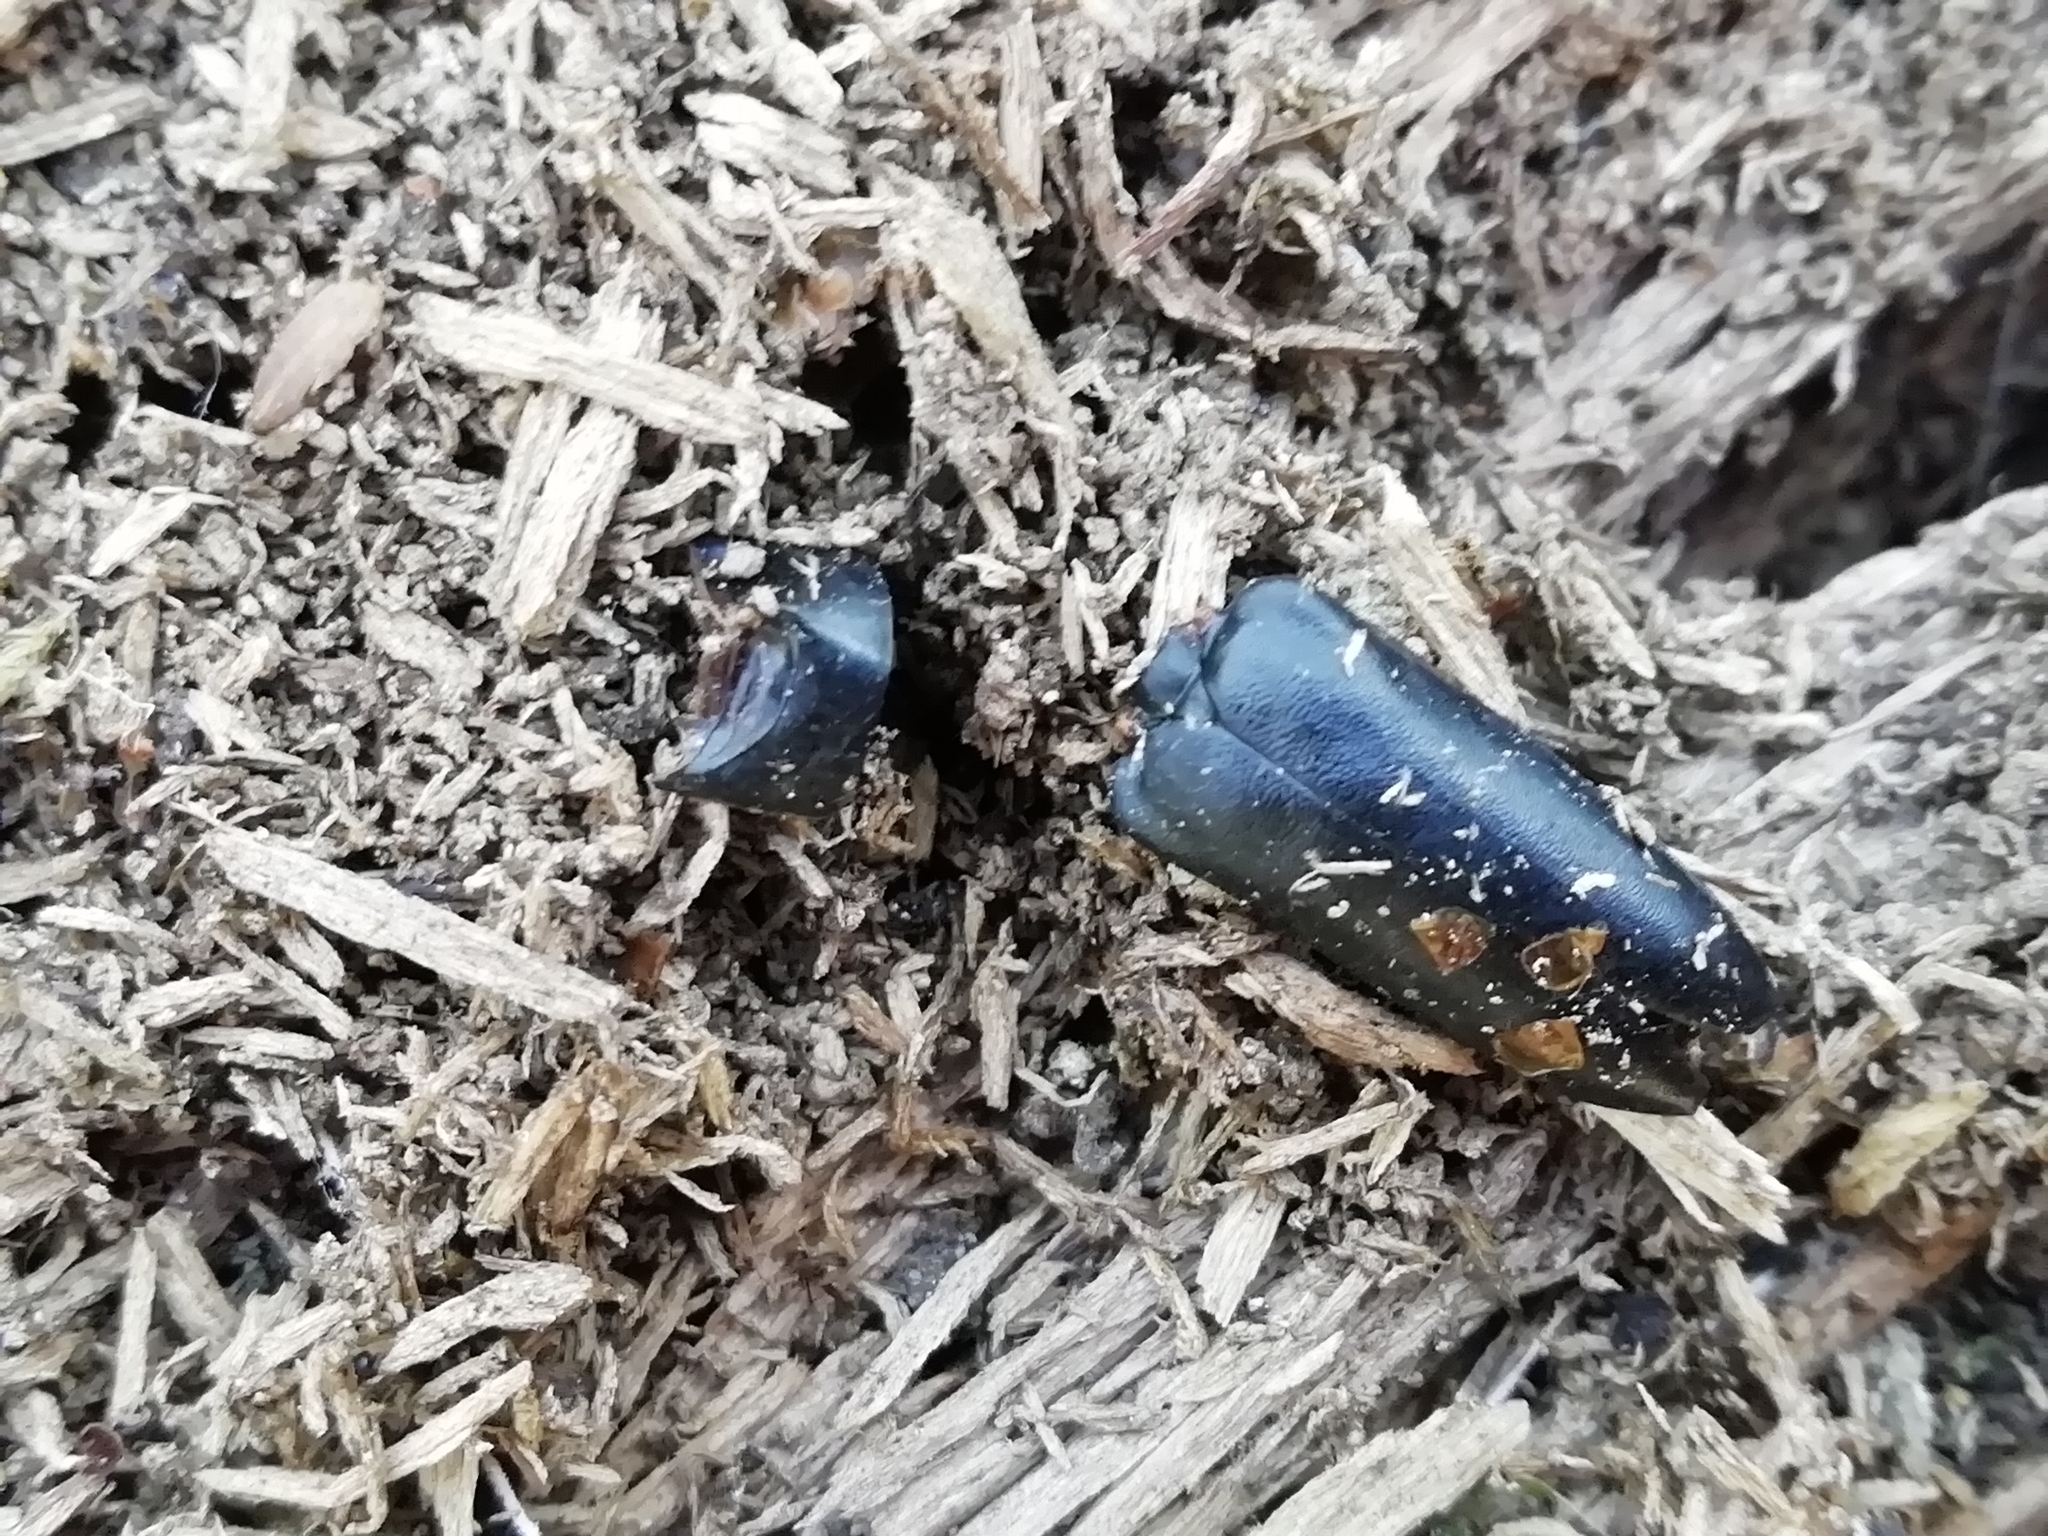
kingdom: Animalia
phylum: Arthropoda
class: Insecta
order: Coleoptera
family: Cerambycidae
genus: Leptura
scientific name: Leptura thoracica
